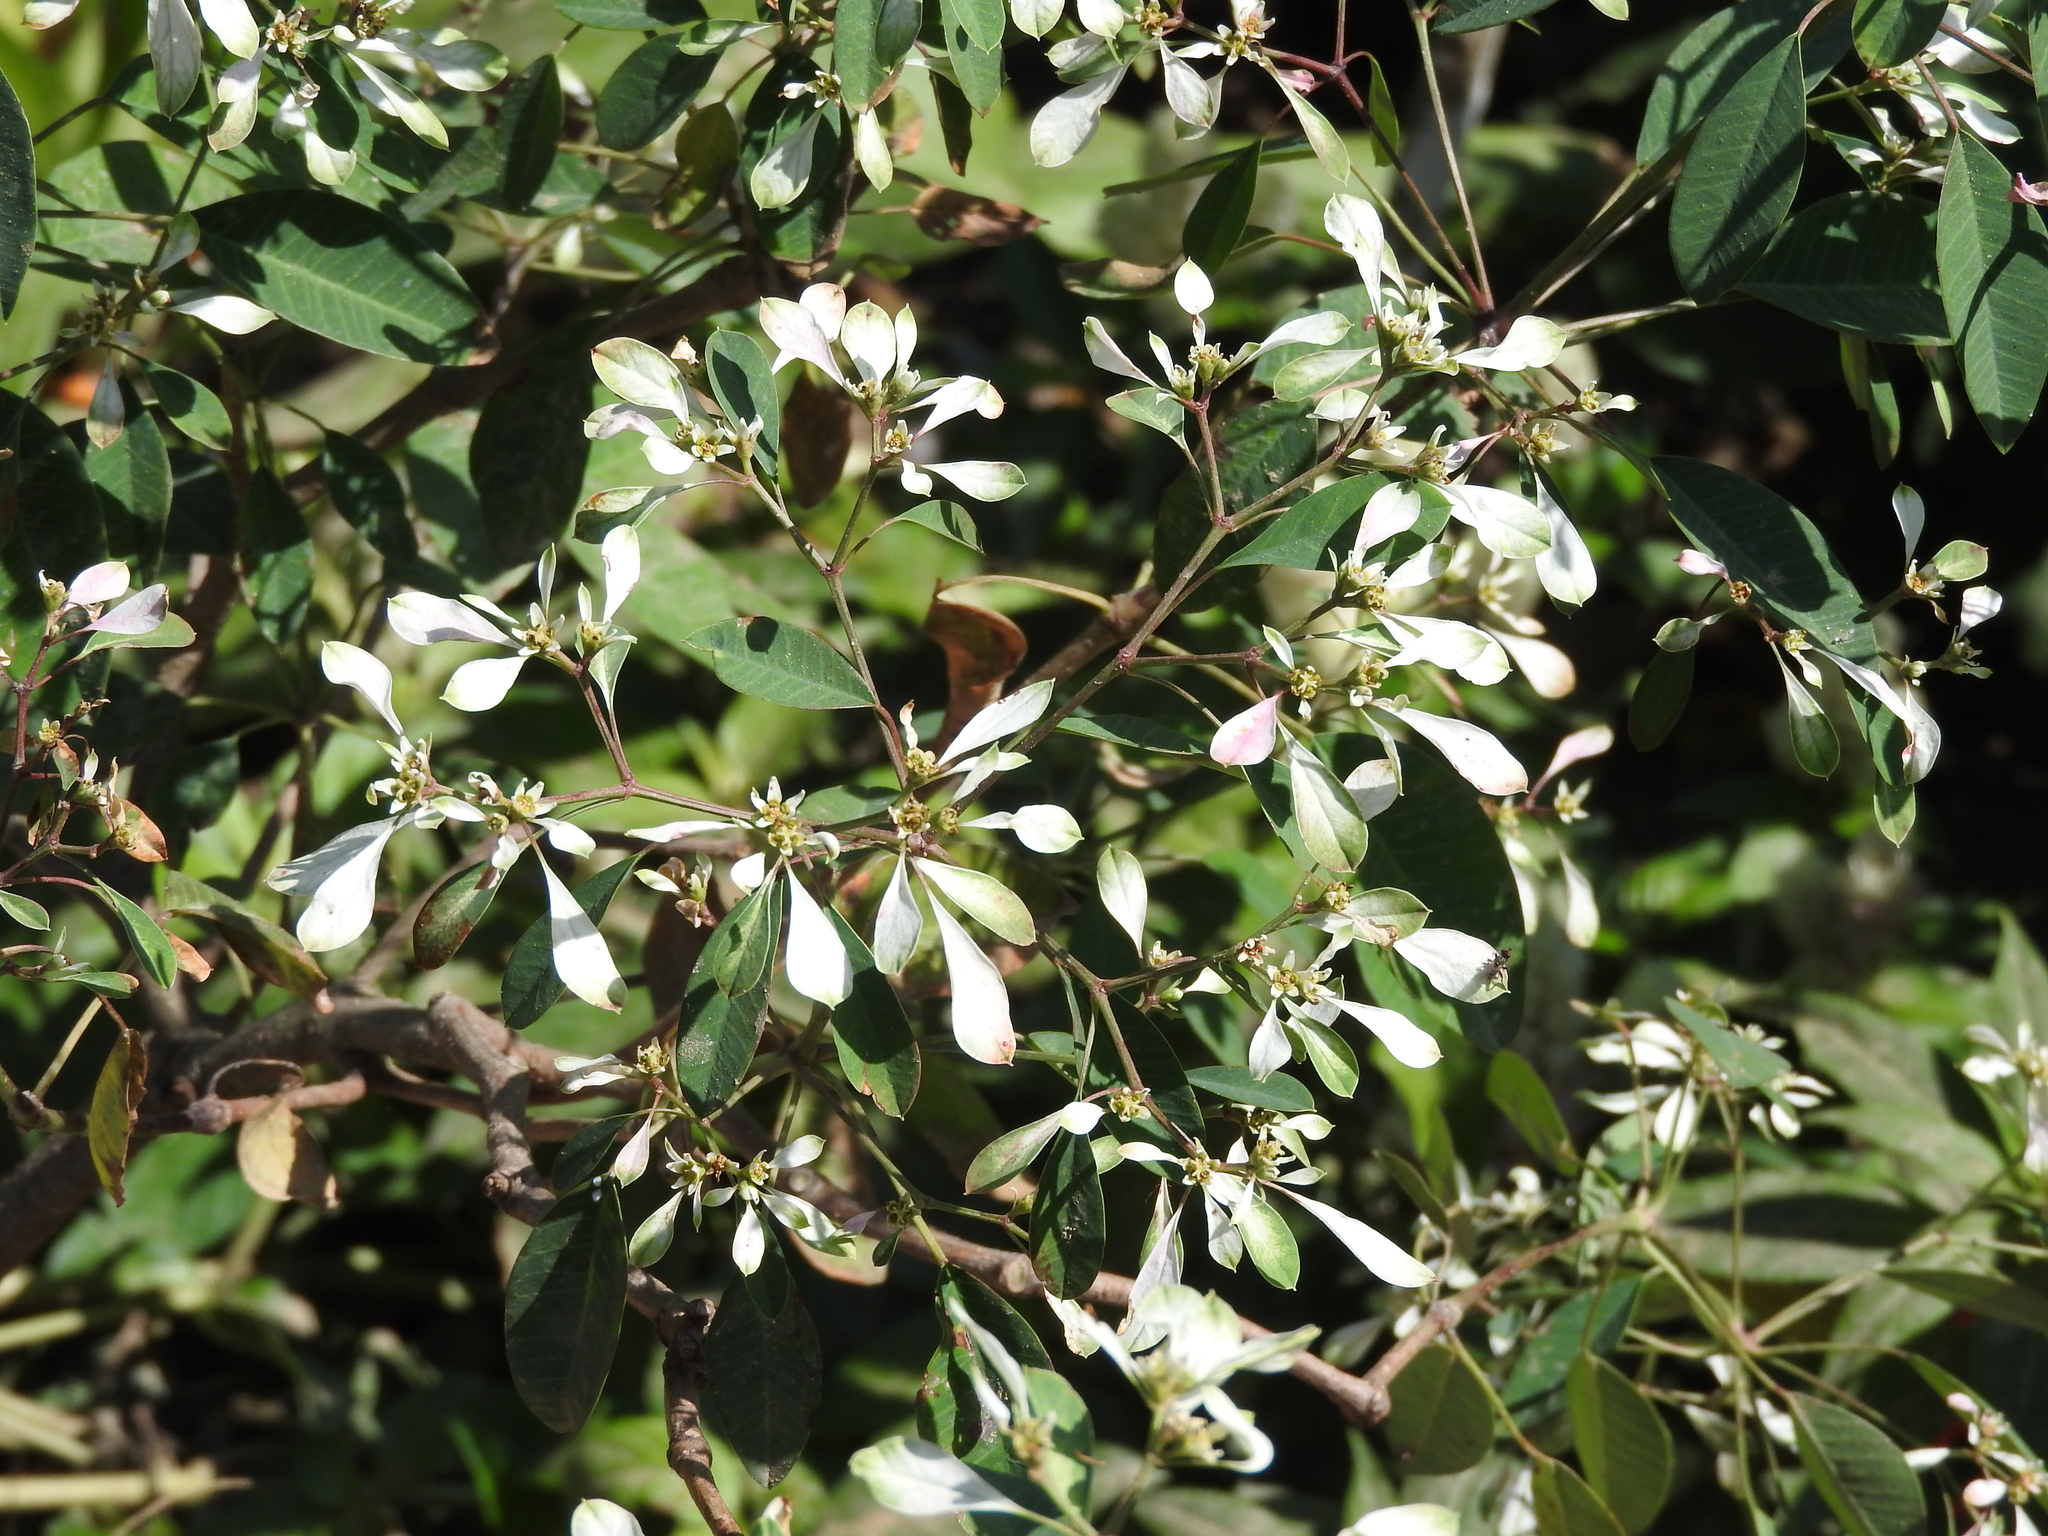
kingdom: Plantae
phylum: Tracheophyta
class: Magnoliopsida
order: Malpighiales
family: Euphorbiaceae
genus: Euphorbia
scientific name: Euphorbia leucocephala
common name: Pascuita
